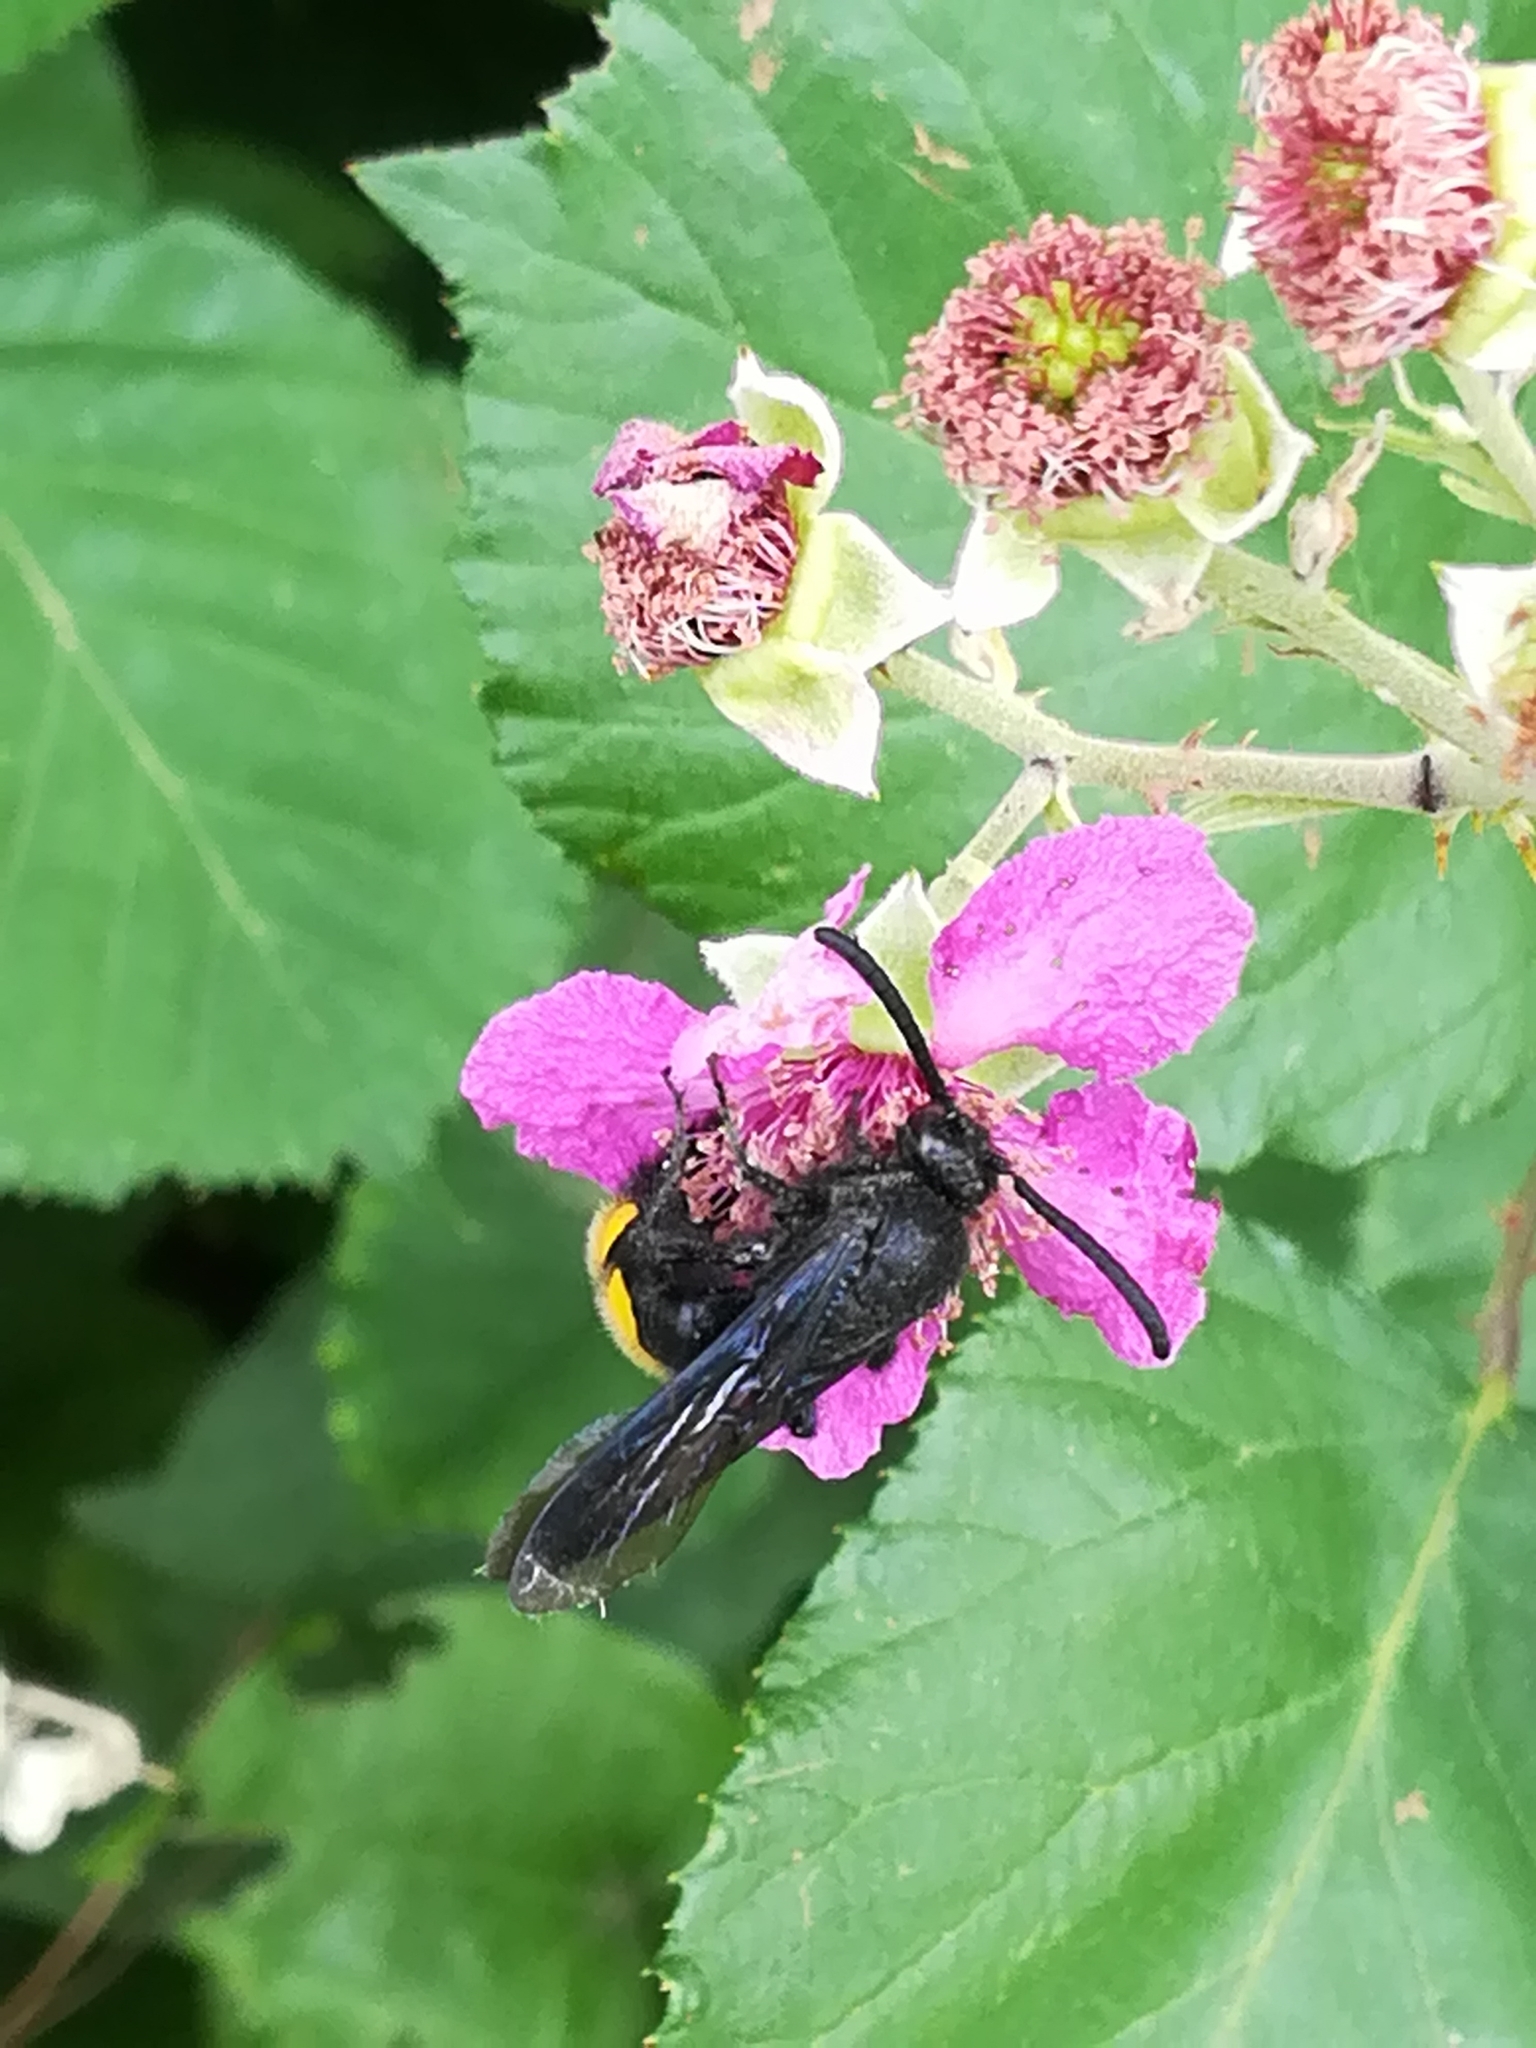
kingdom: Animalia
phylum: Arthropoda
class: Insecta
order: Hymenoptera
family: Scoliidae
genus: Scolia
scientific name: Scolia hirta
